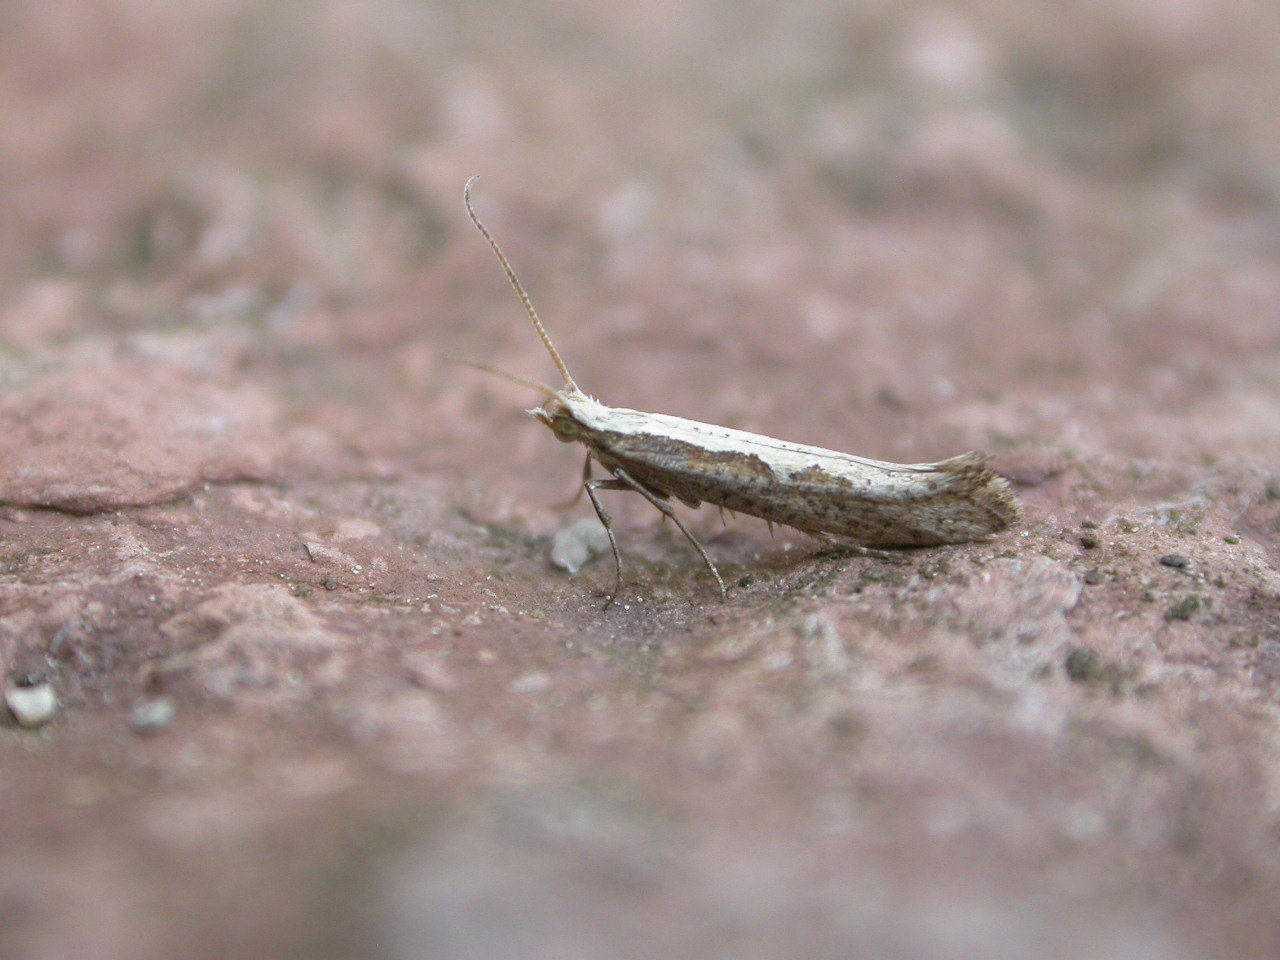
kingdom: Animalia
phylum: Arthropoda
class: Insecta
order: Lepidoptera
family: Plutellidae
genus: Plutella
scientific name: Plutella xylostella
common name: Diamond-back moth
